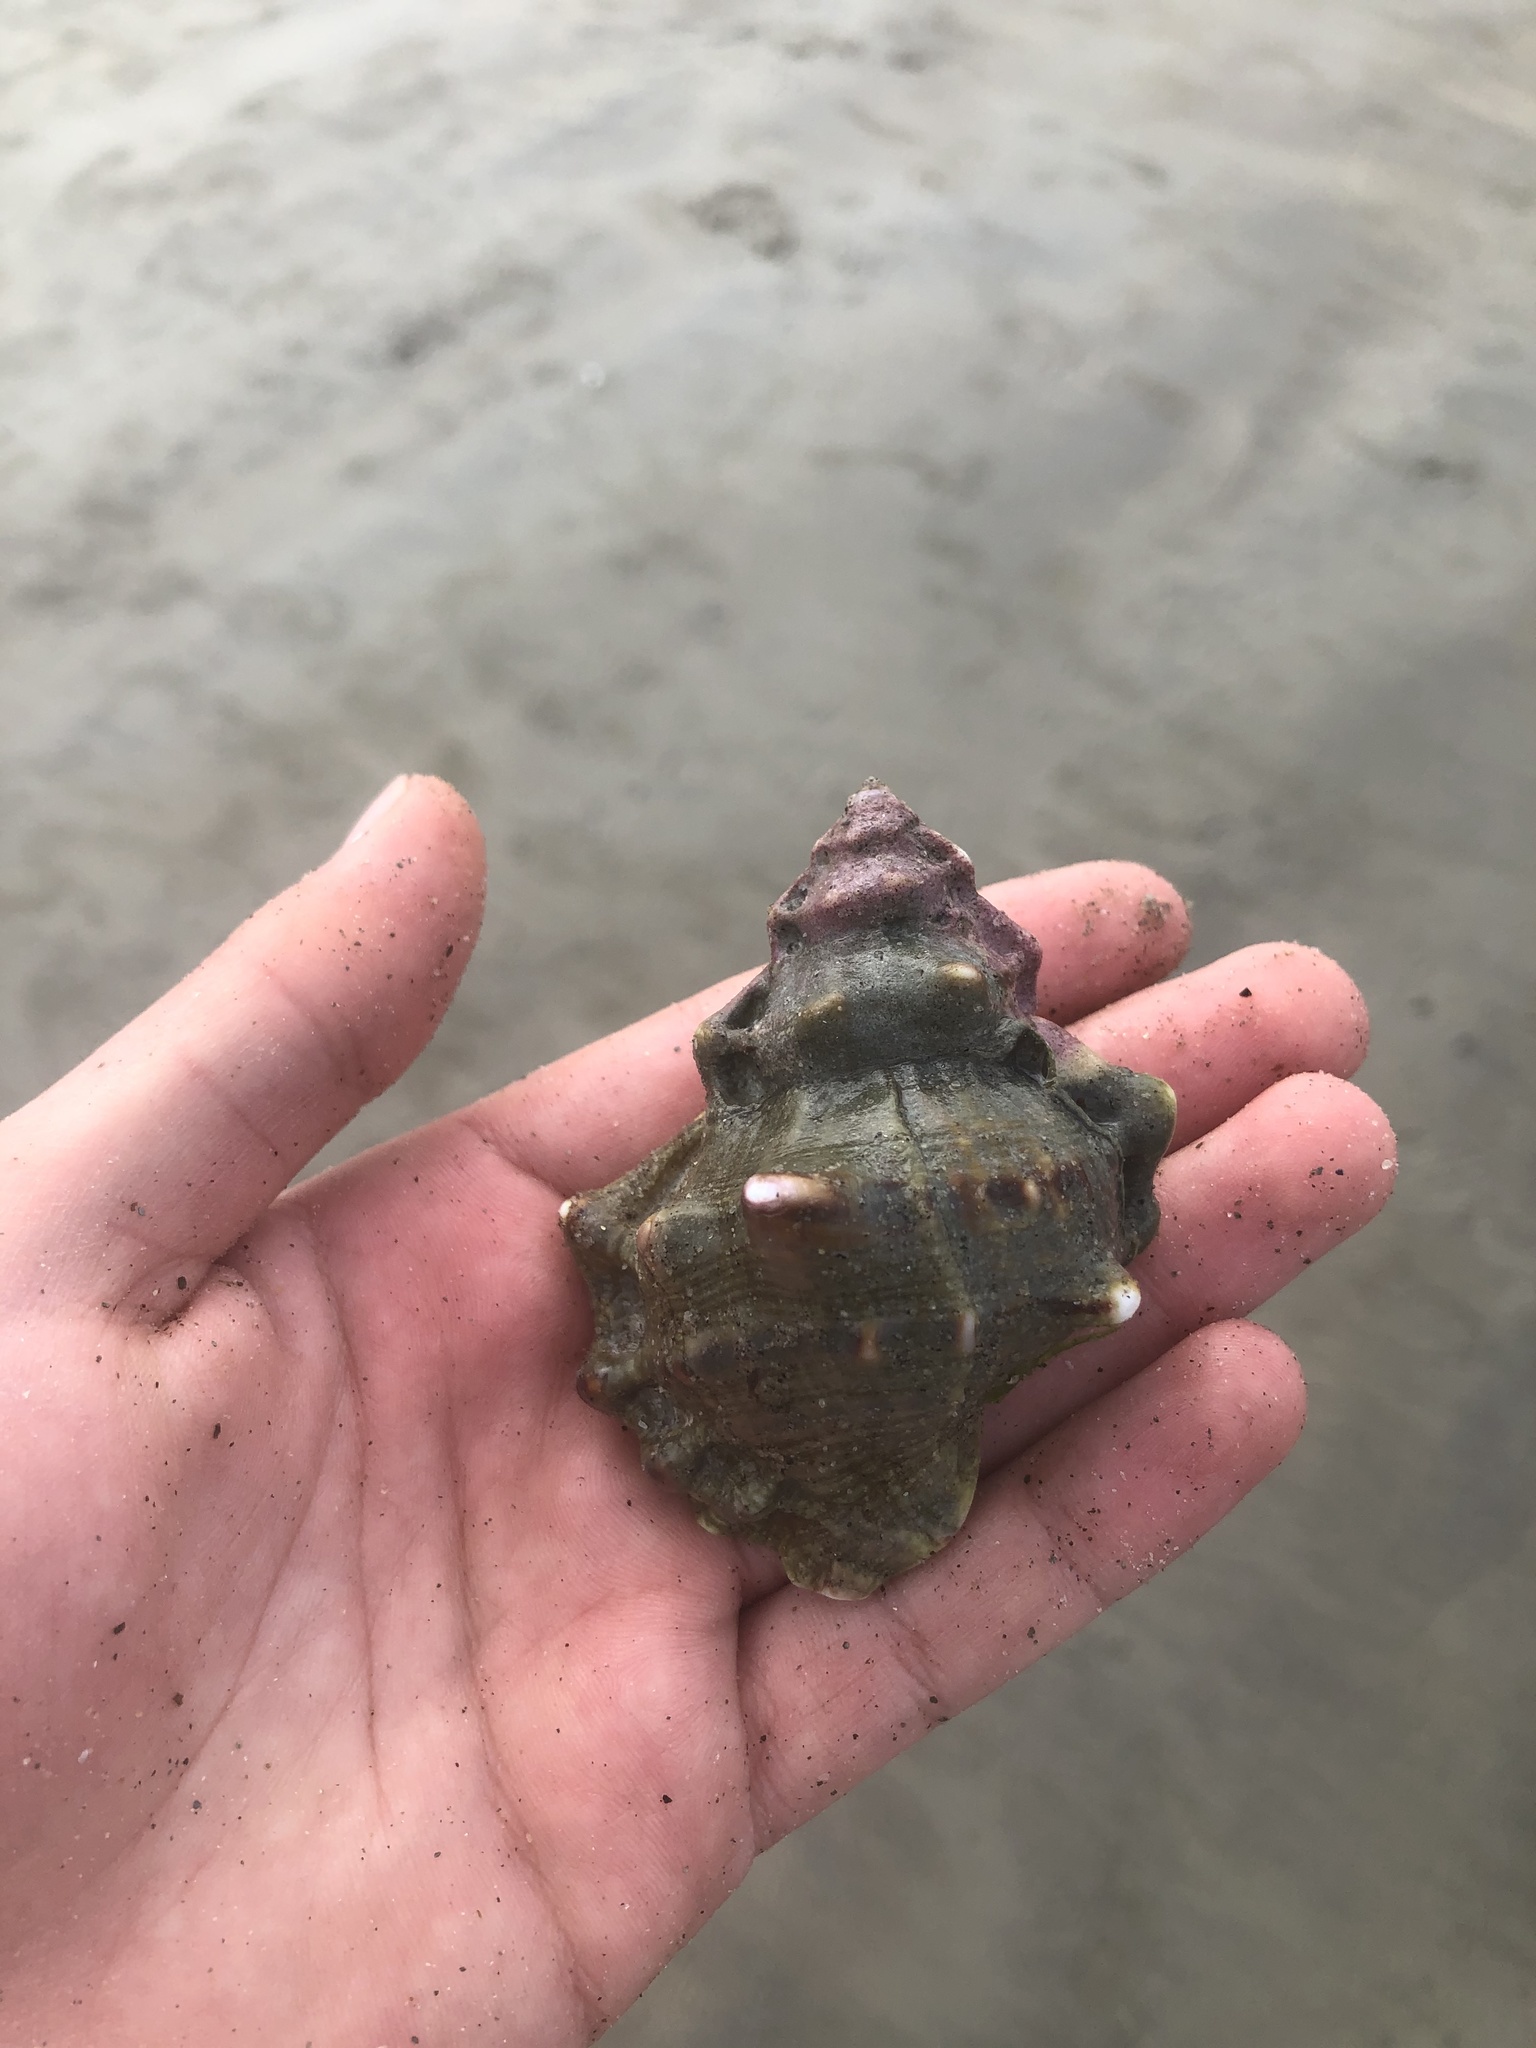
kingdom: Animalia
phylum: Mollusca
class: Gastropoda
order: Littorinimorpha
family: Bursidae
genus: Crossata
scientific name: Crossata californica
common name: California frogsnail
